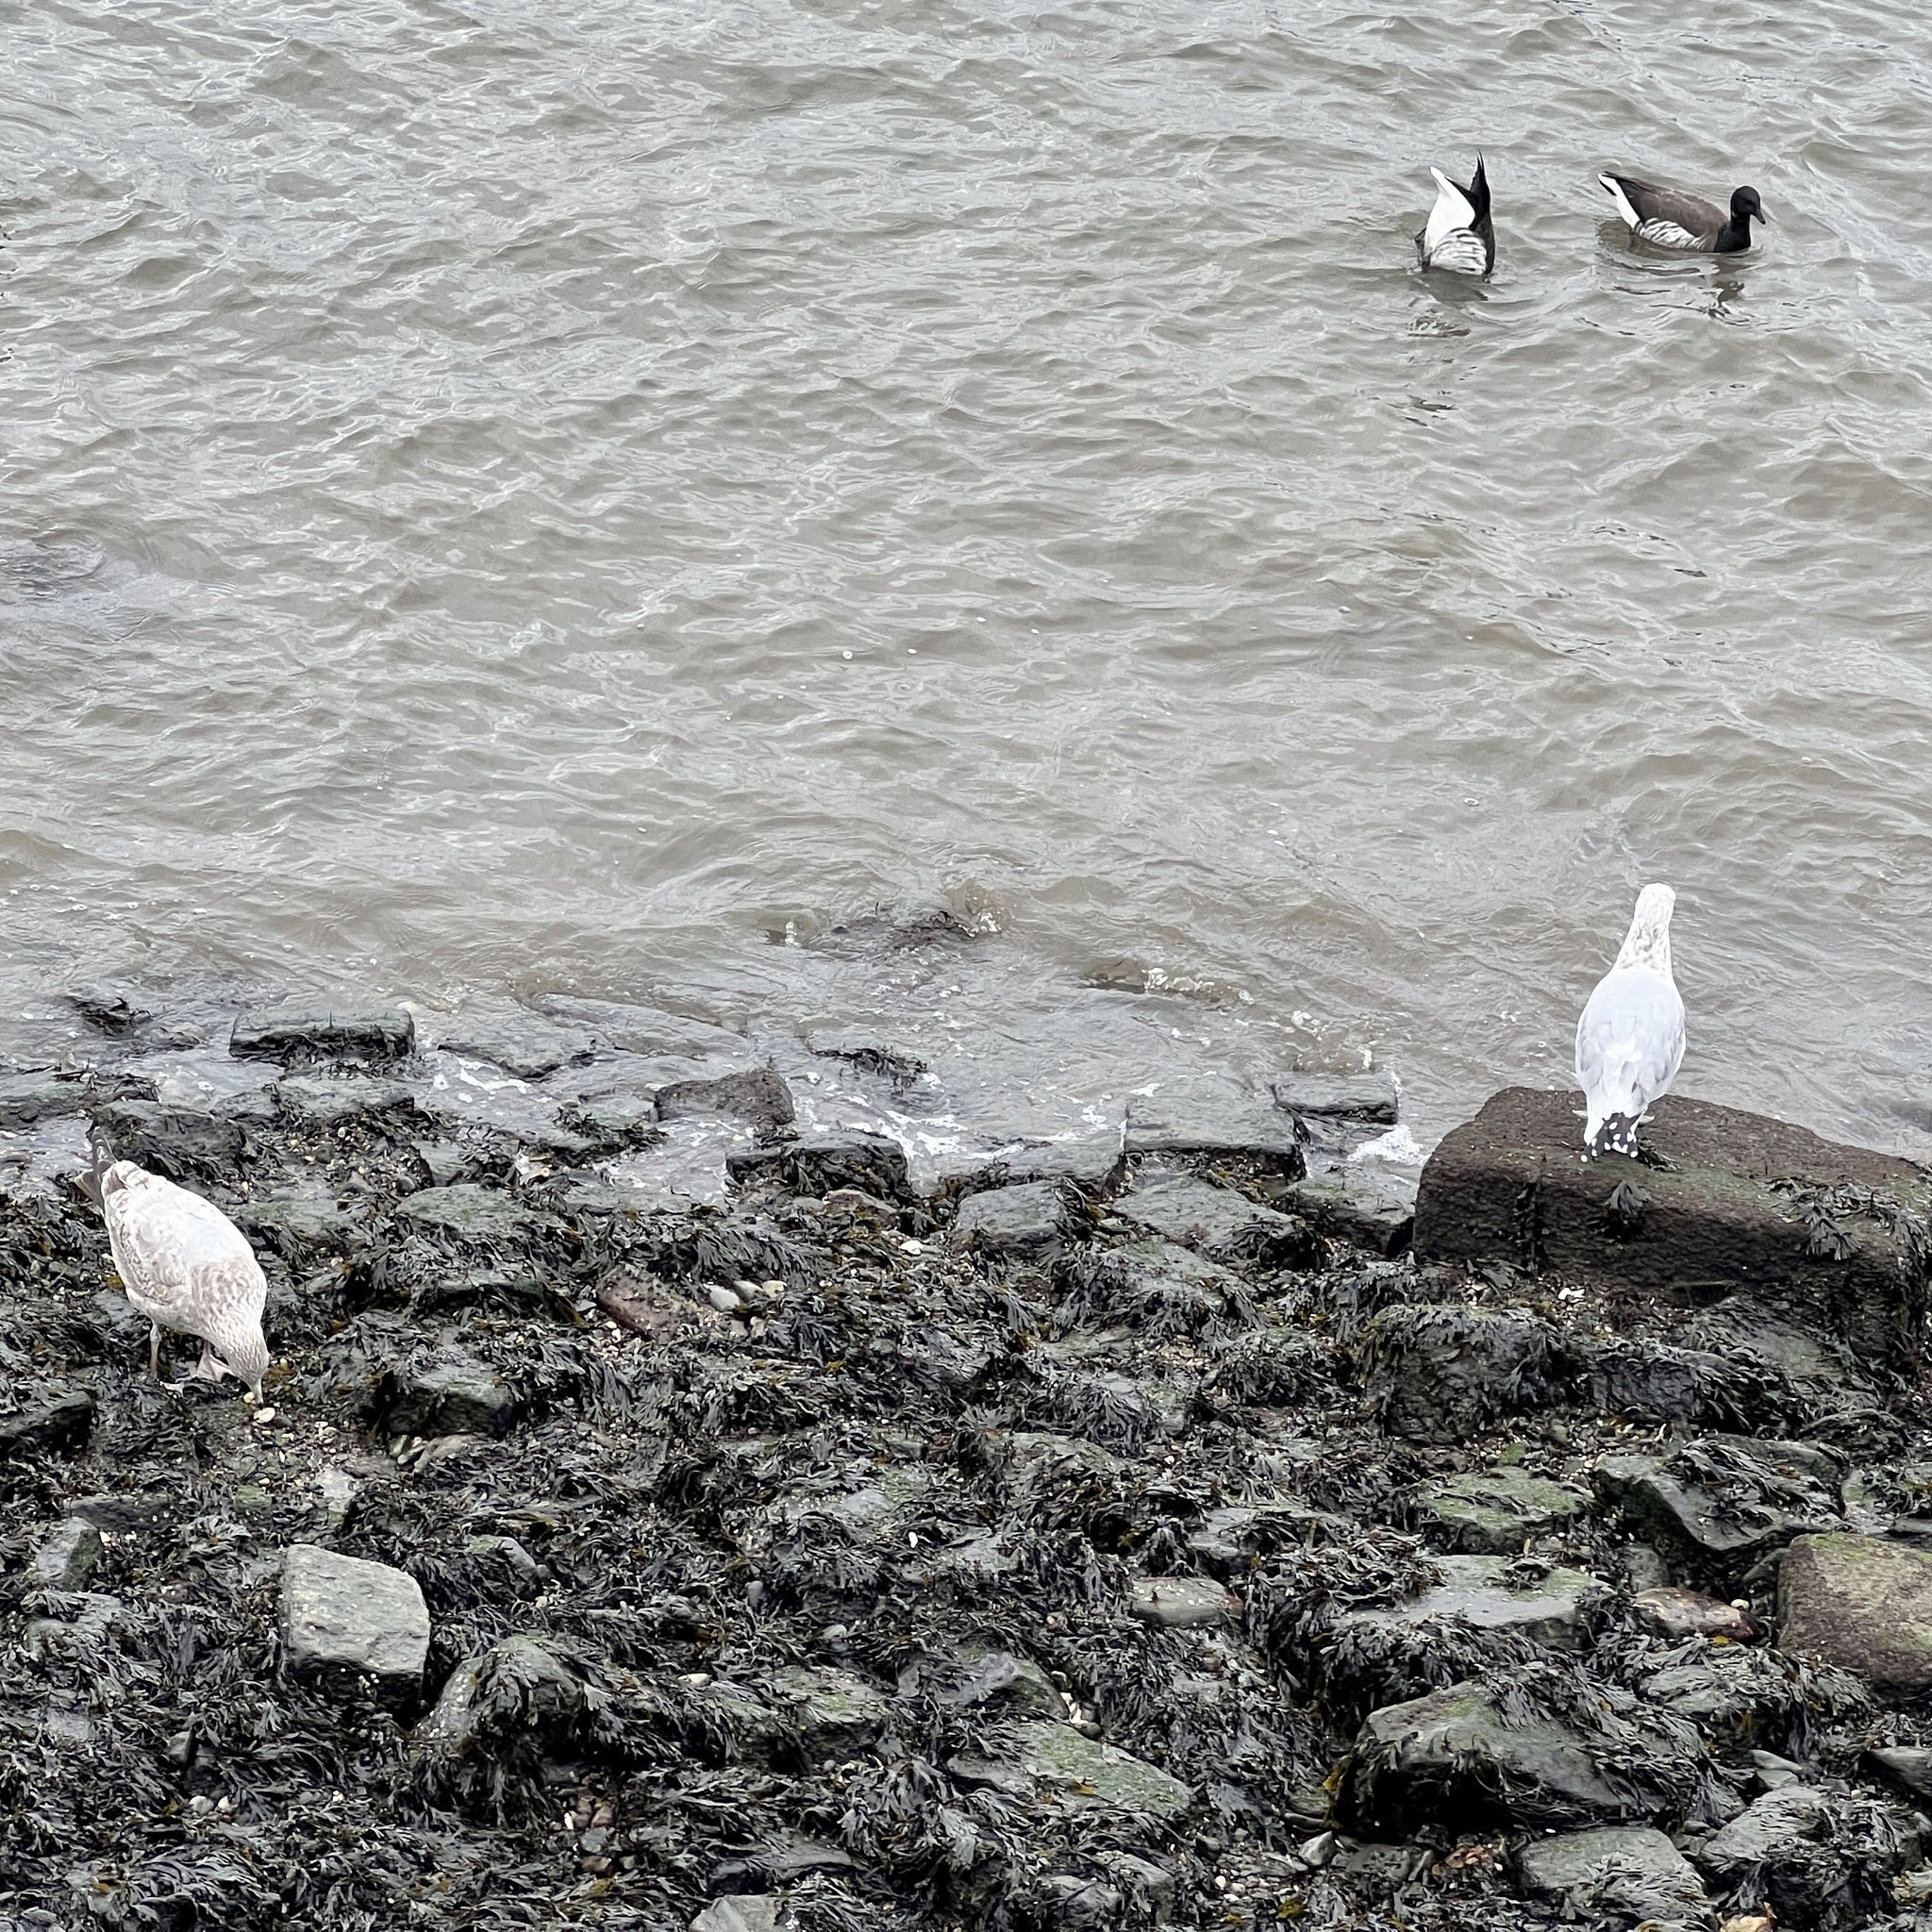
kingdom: Animalia
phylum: Chordata
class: Aves
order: Charadriiformes
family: Laridae
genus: Larus
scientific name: Larus argentatus
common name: Herring gull
